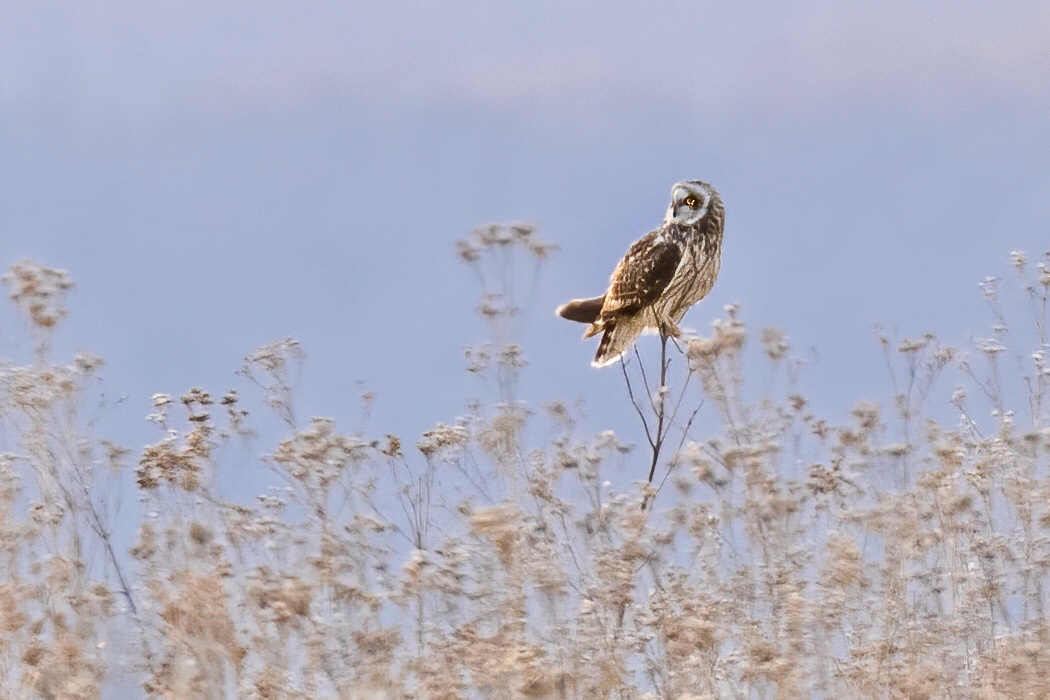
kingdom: Animalia
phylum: Chordata
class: Aves
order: Strigiformes
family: Strigidae
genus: Asio
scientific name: Asio flammeus
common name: Short-eared owl
